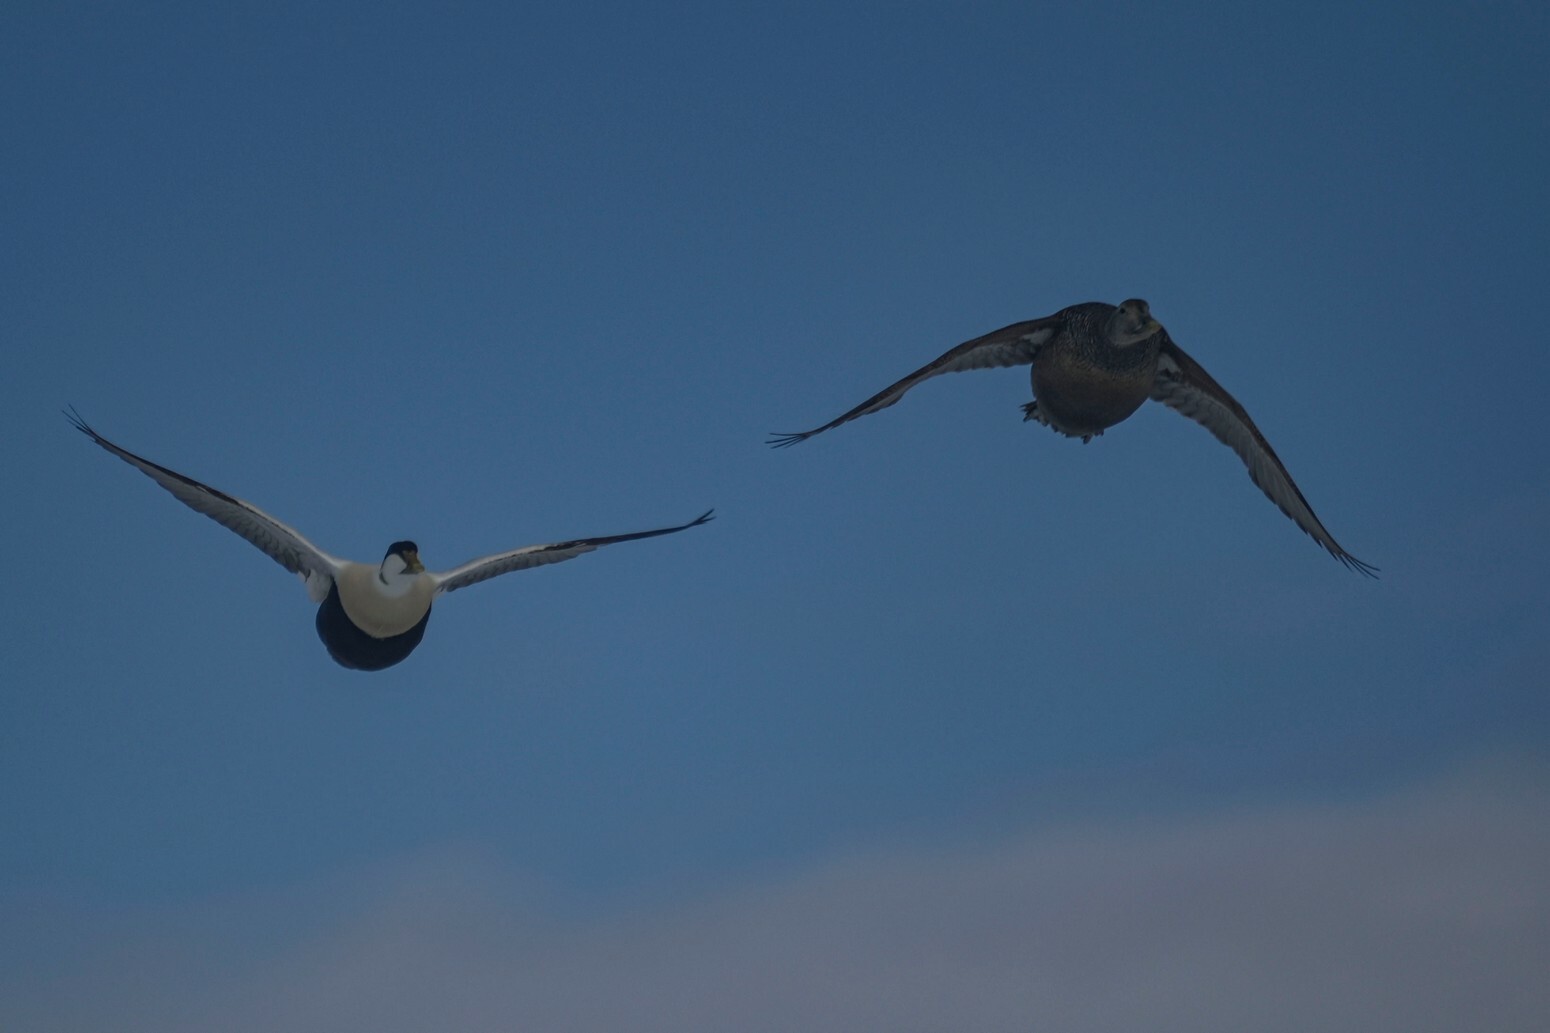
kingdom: Animalia
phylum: Chordata
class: Aves
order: Anseriformes
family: Anatidae
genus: Somateria
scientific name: Somateria mollissima
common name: Common eider
